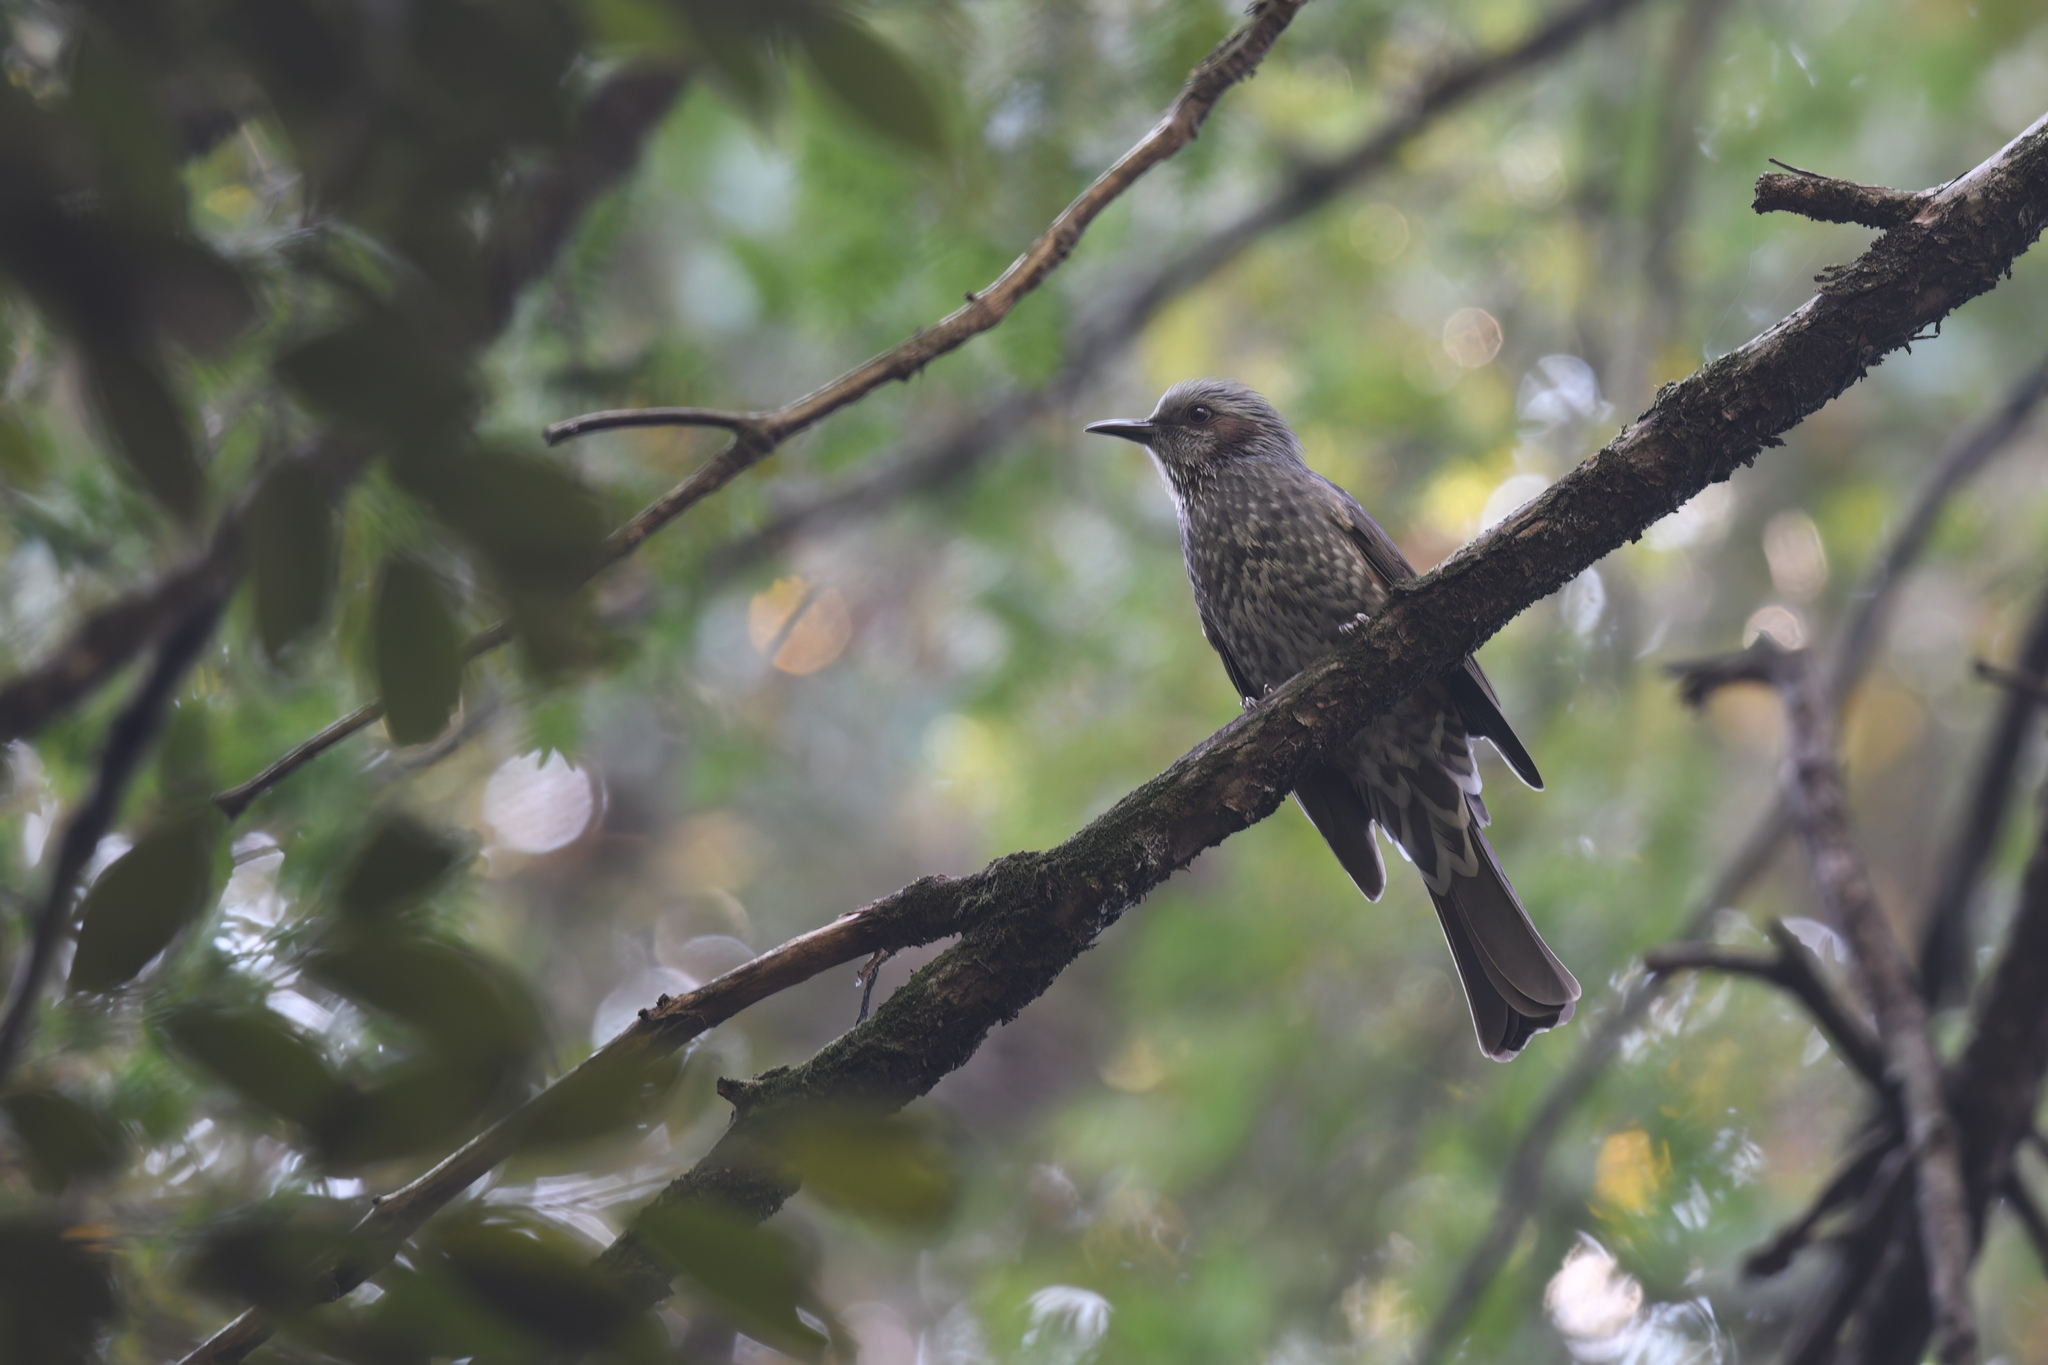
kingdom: Animalia
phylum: Chordata
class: Aves
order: Passeriformes
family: Pycnonotidae
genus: Hypsipetes
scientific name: Hypsipetes amaurotis
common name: Brown-eared bulbul
